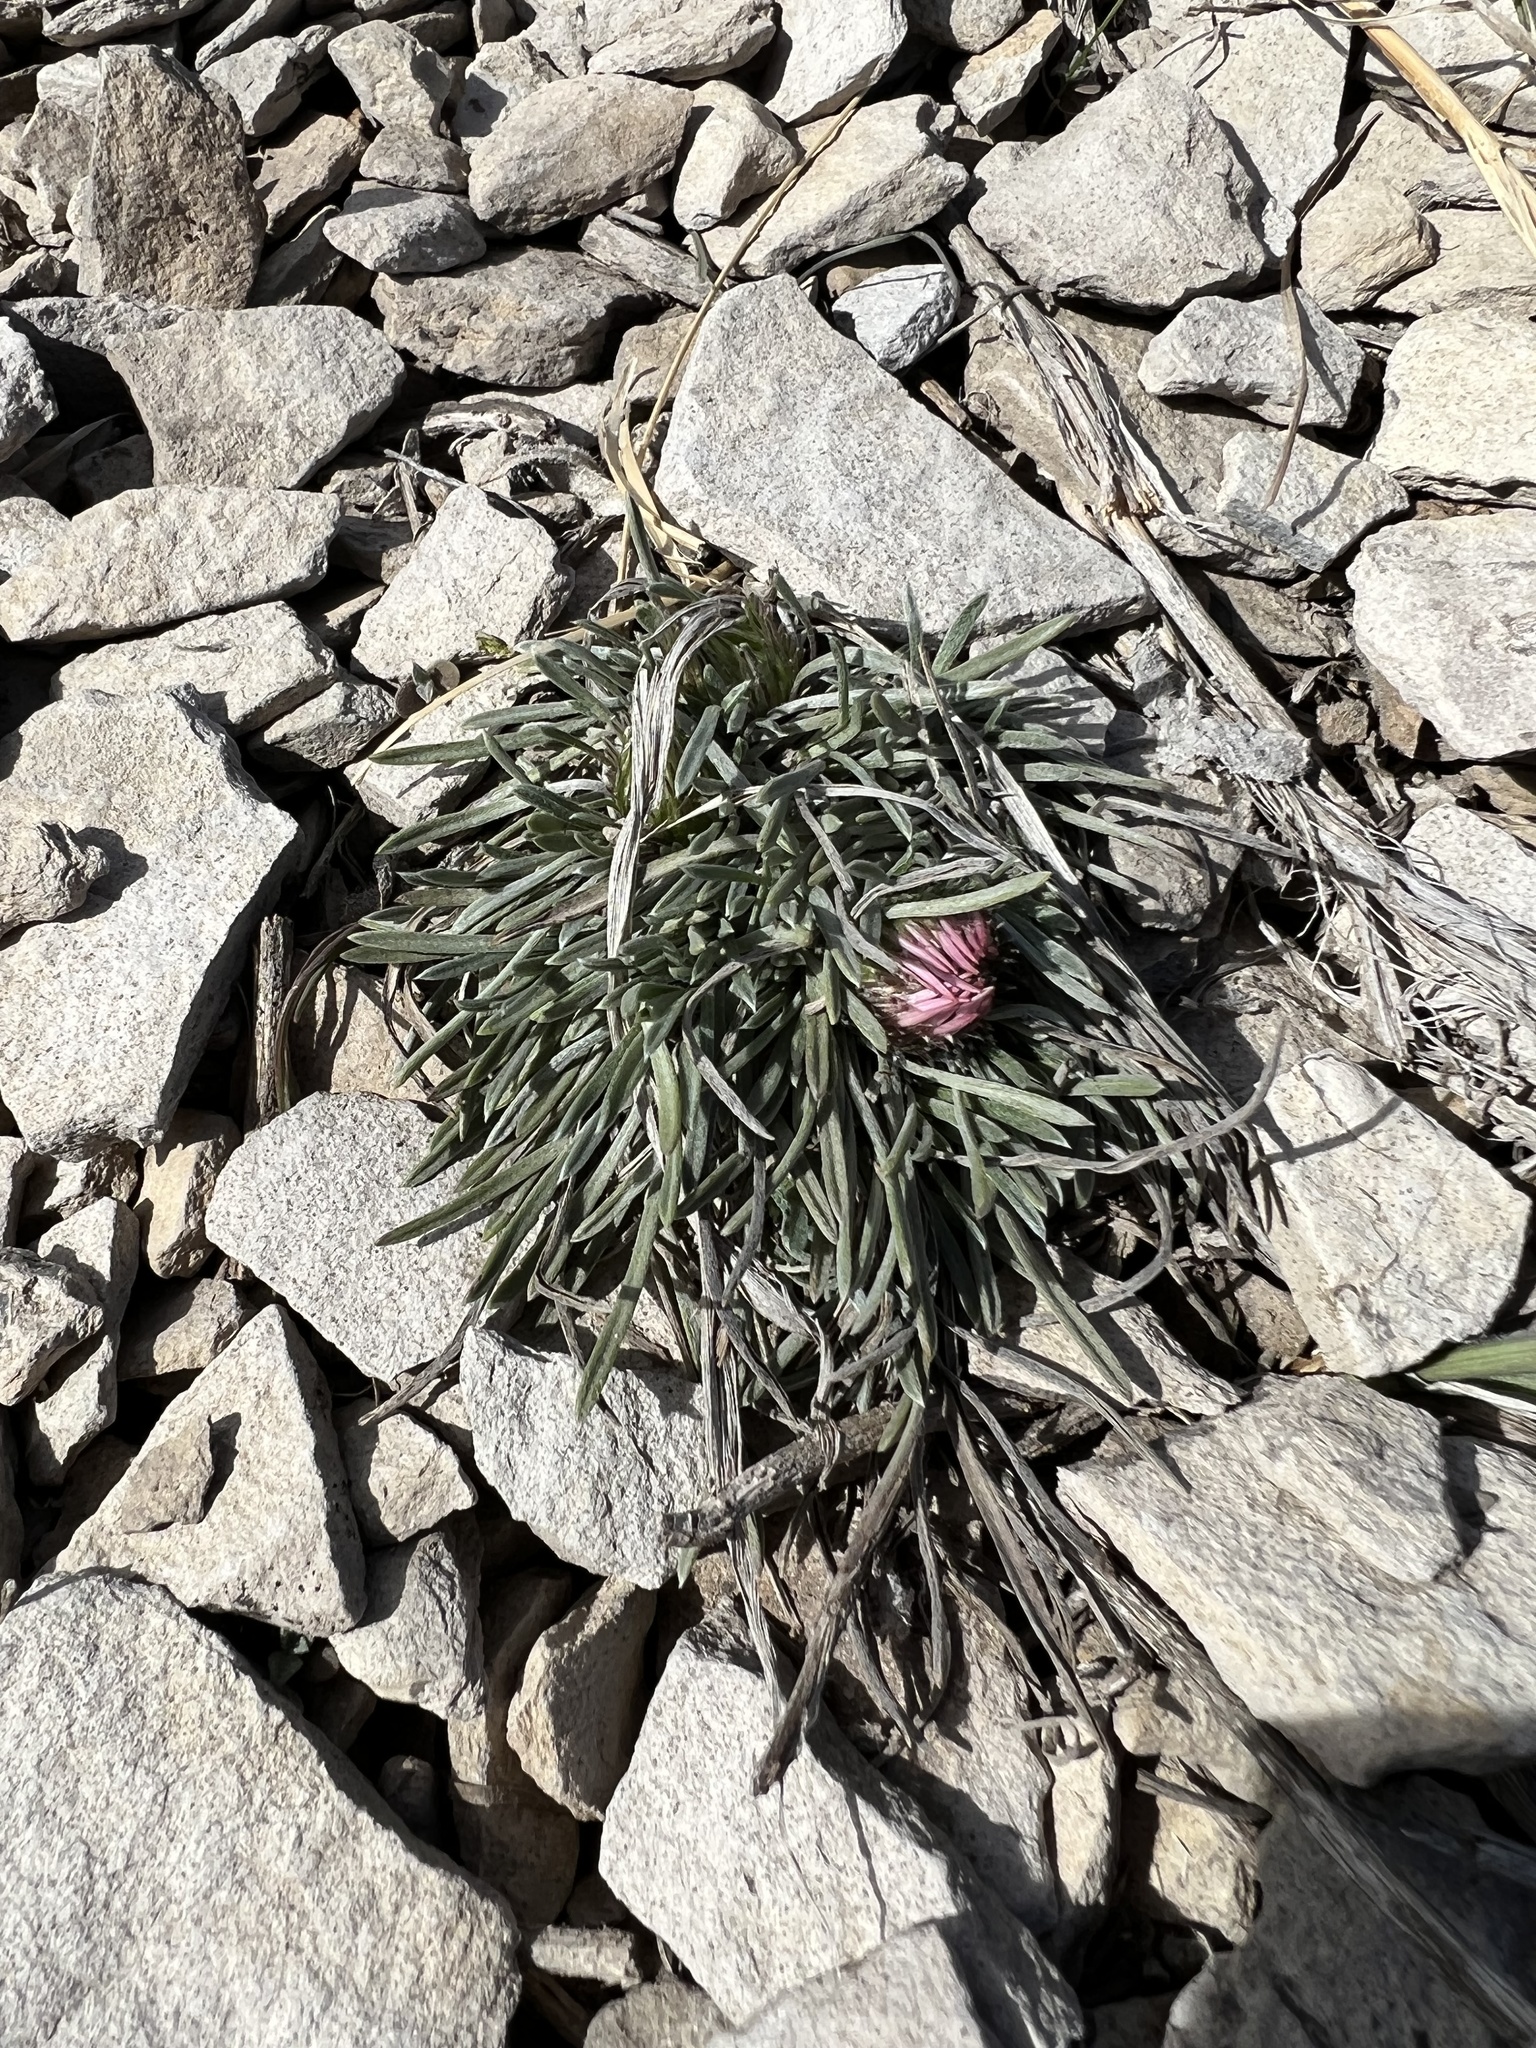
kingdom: Plantae
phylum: Tracheophyta
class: Magnoliopsida
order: Asterales
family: Asteraceae
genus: Townsendia
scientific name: Townsendia hookeri
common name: Hooker's townsend daisy
